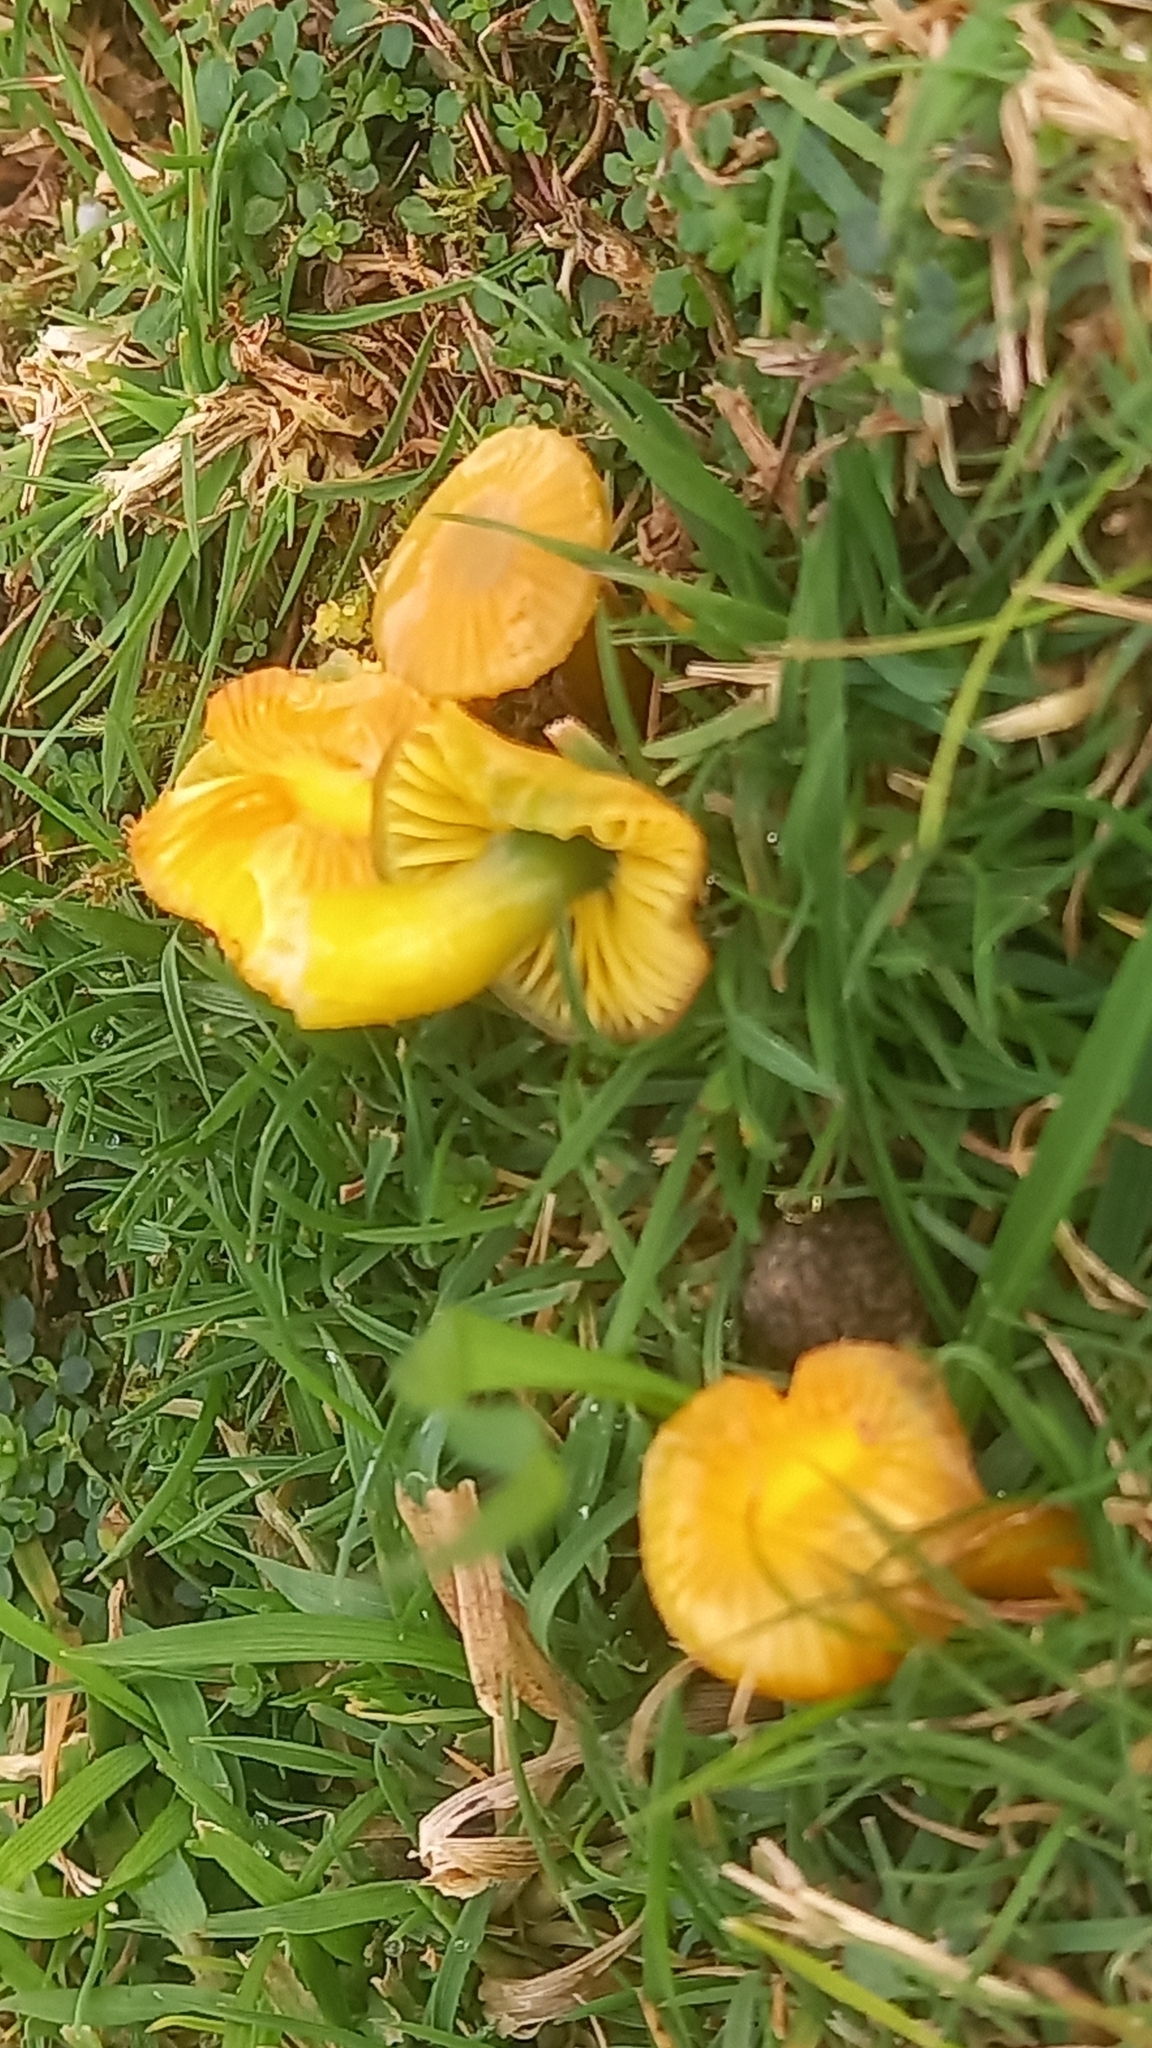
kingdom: Fungi
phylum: Basidiomycota
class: Agaricomycetes
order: Agaricales
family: Hygrophoraceae
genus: Gliophorus
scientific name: Gliophorus psittacinus
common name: Parrot wax-cap
